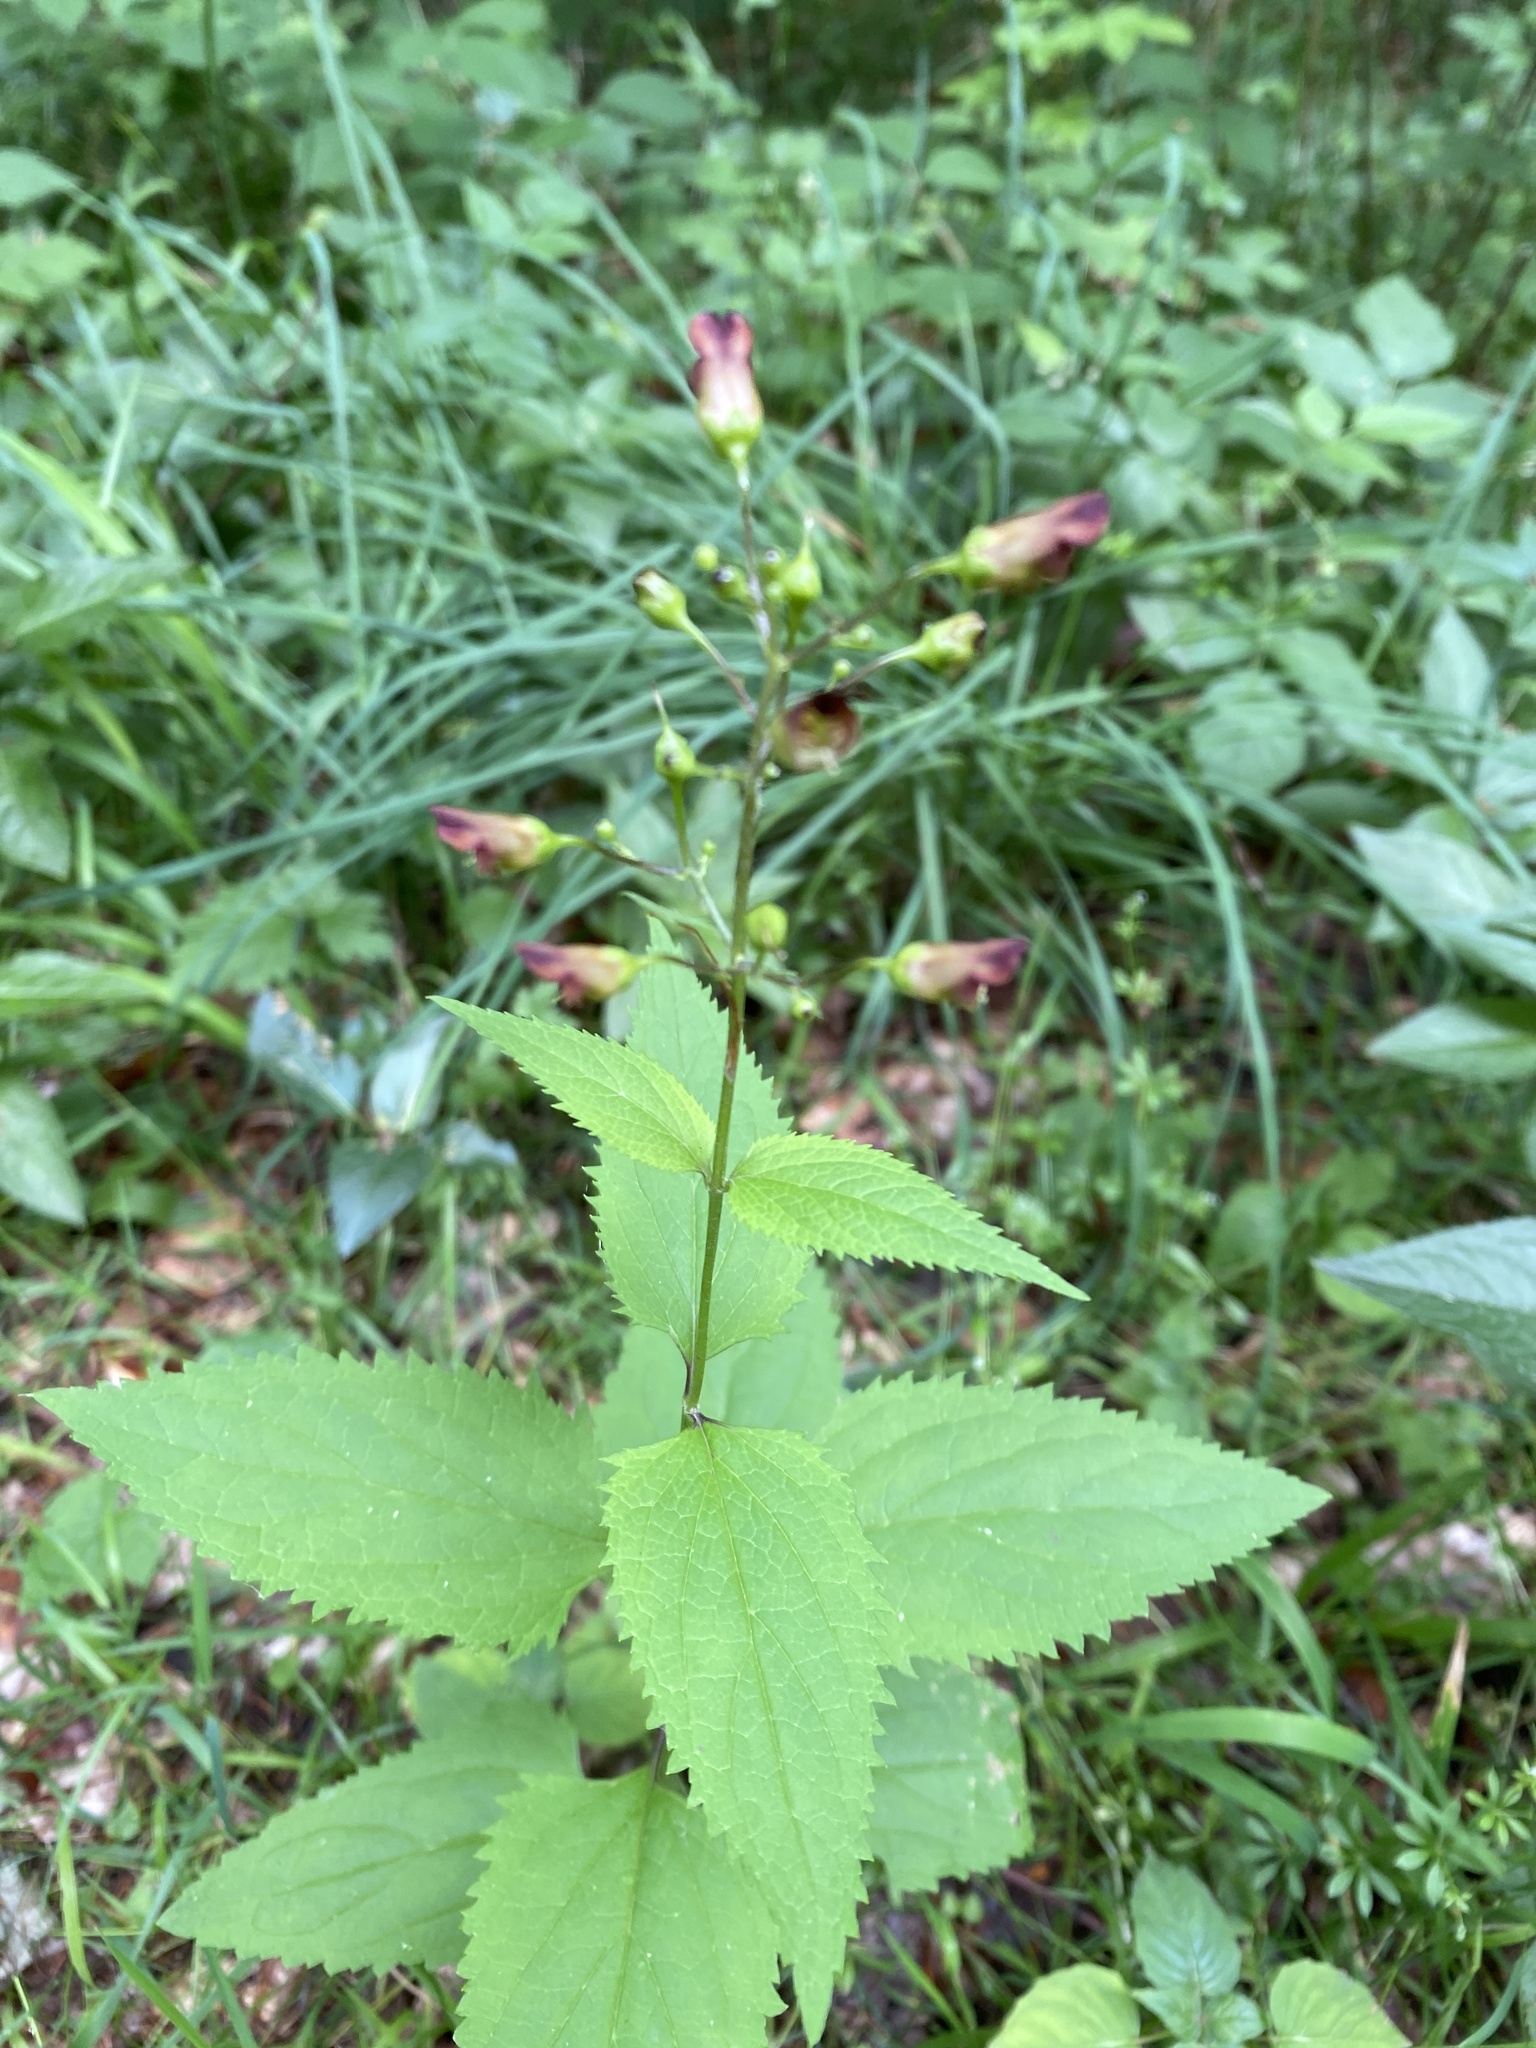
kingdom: Plantae
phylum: Tracheophyta
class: Magnoliopsida
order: Lamiales
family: Scrophulariaceae
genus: Scrophularia
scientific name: Scrophularia nodosa
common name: Common figwort
